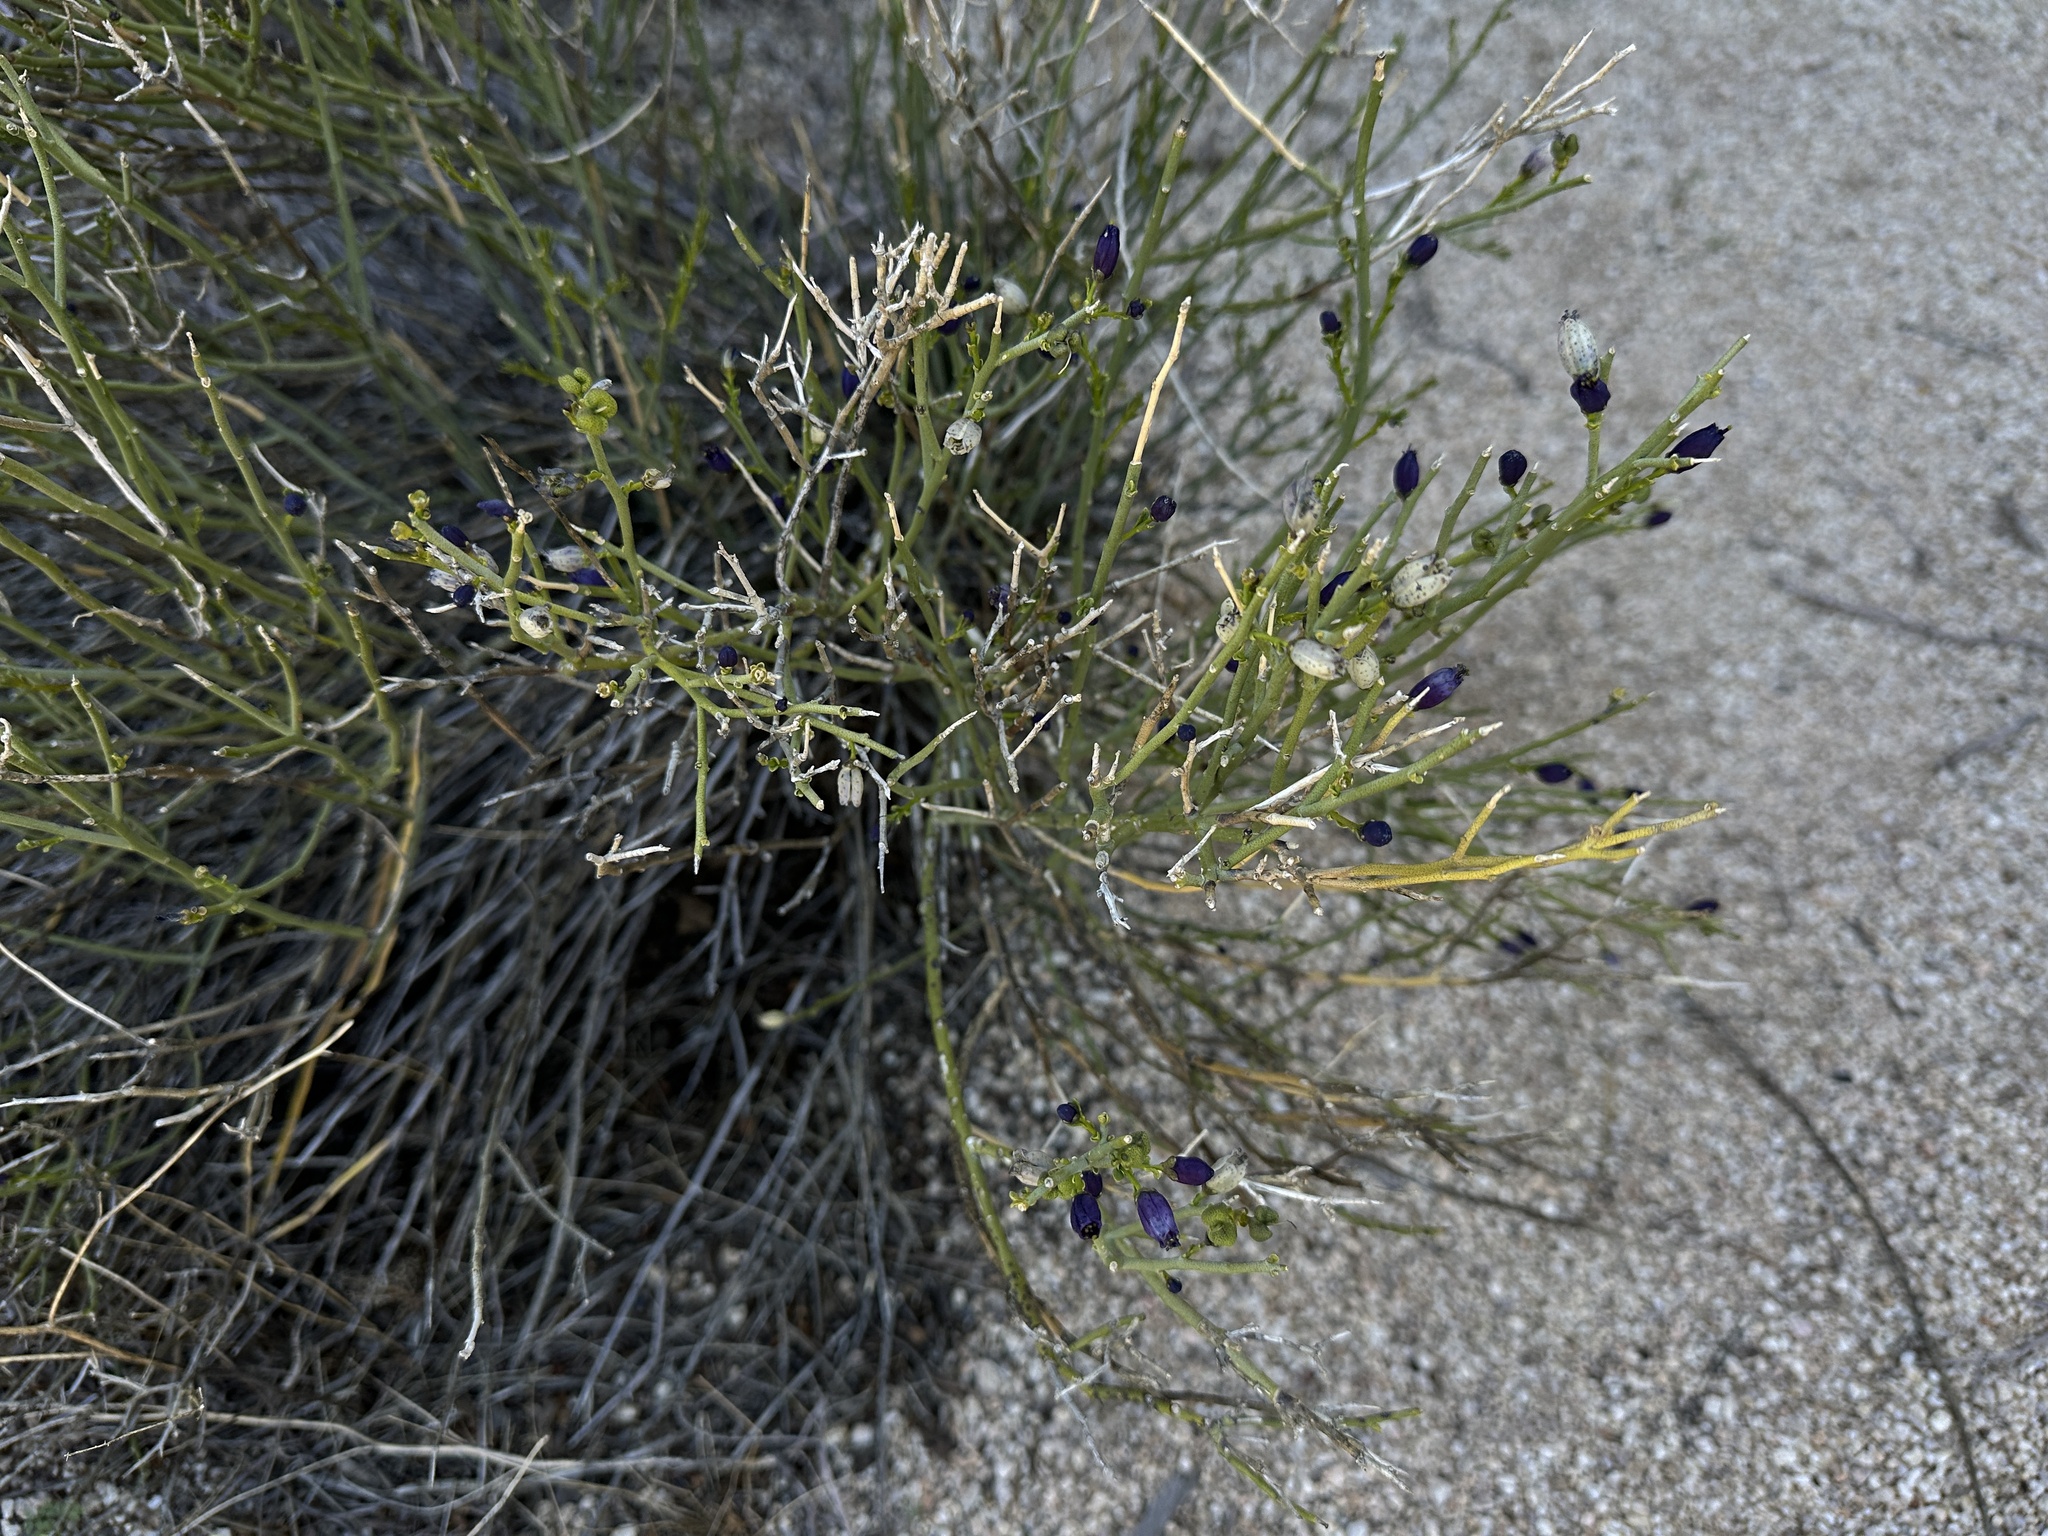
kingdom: Plantae
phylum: Tracheophyta
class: Magnoliopsida
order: Sapindales
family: Rutaceae
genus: Thamnosma
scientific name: Thamnosma montana
